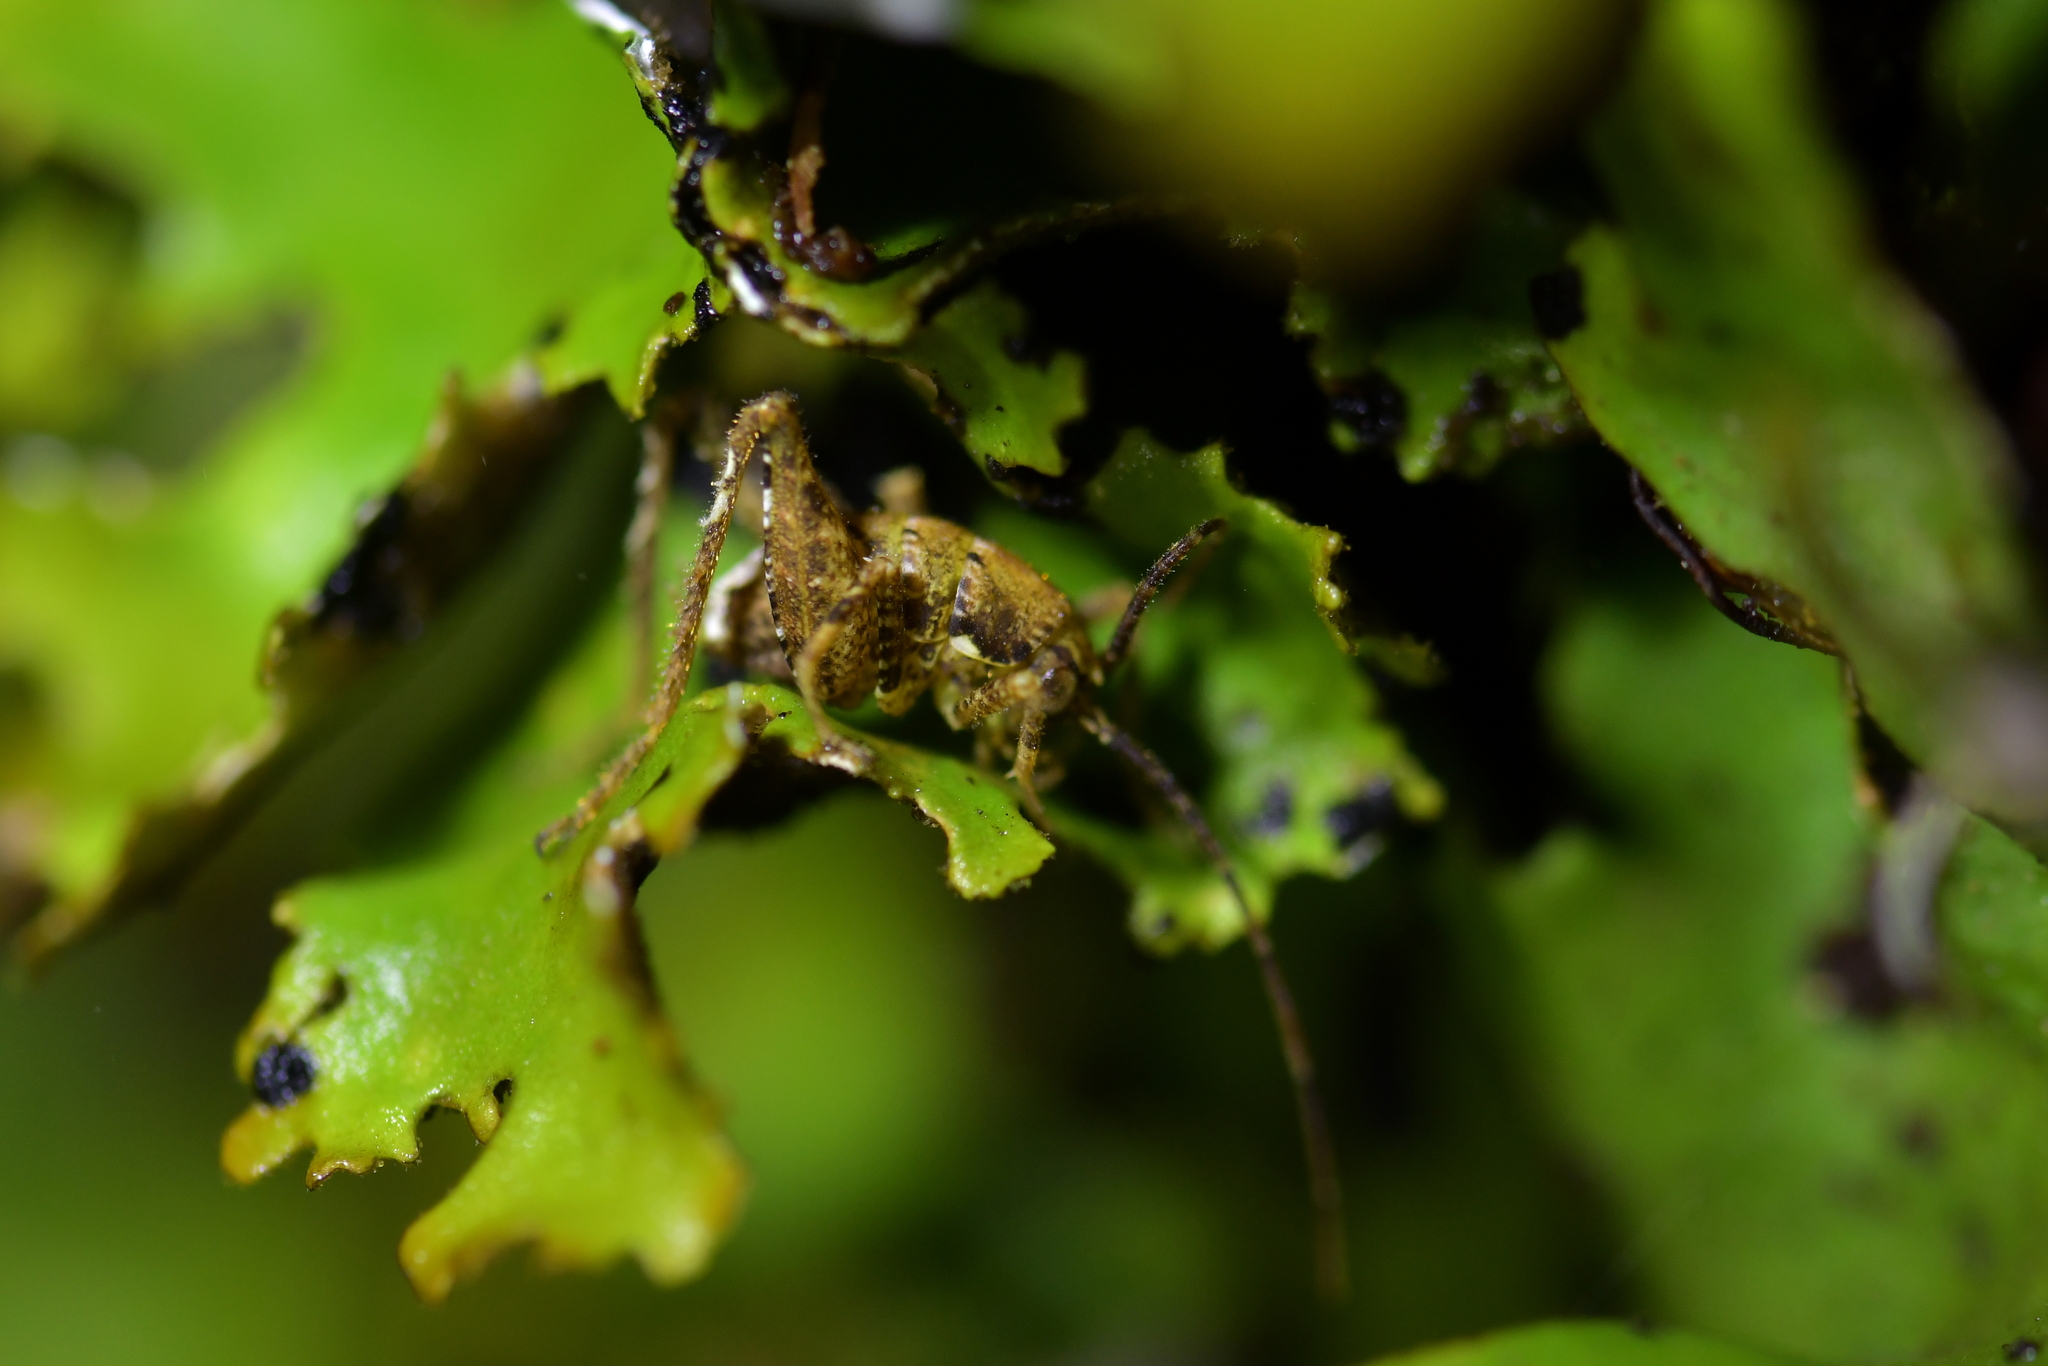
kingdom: Animalia
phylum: Arthropoda
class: Insecta
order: Orthoptera
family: Rhaphidophoridae
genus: Maotoweta
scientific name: Maotoweta virescens
